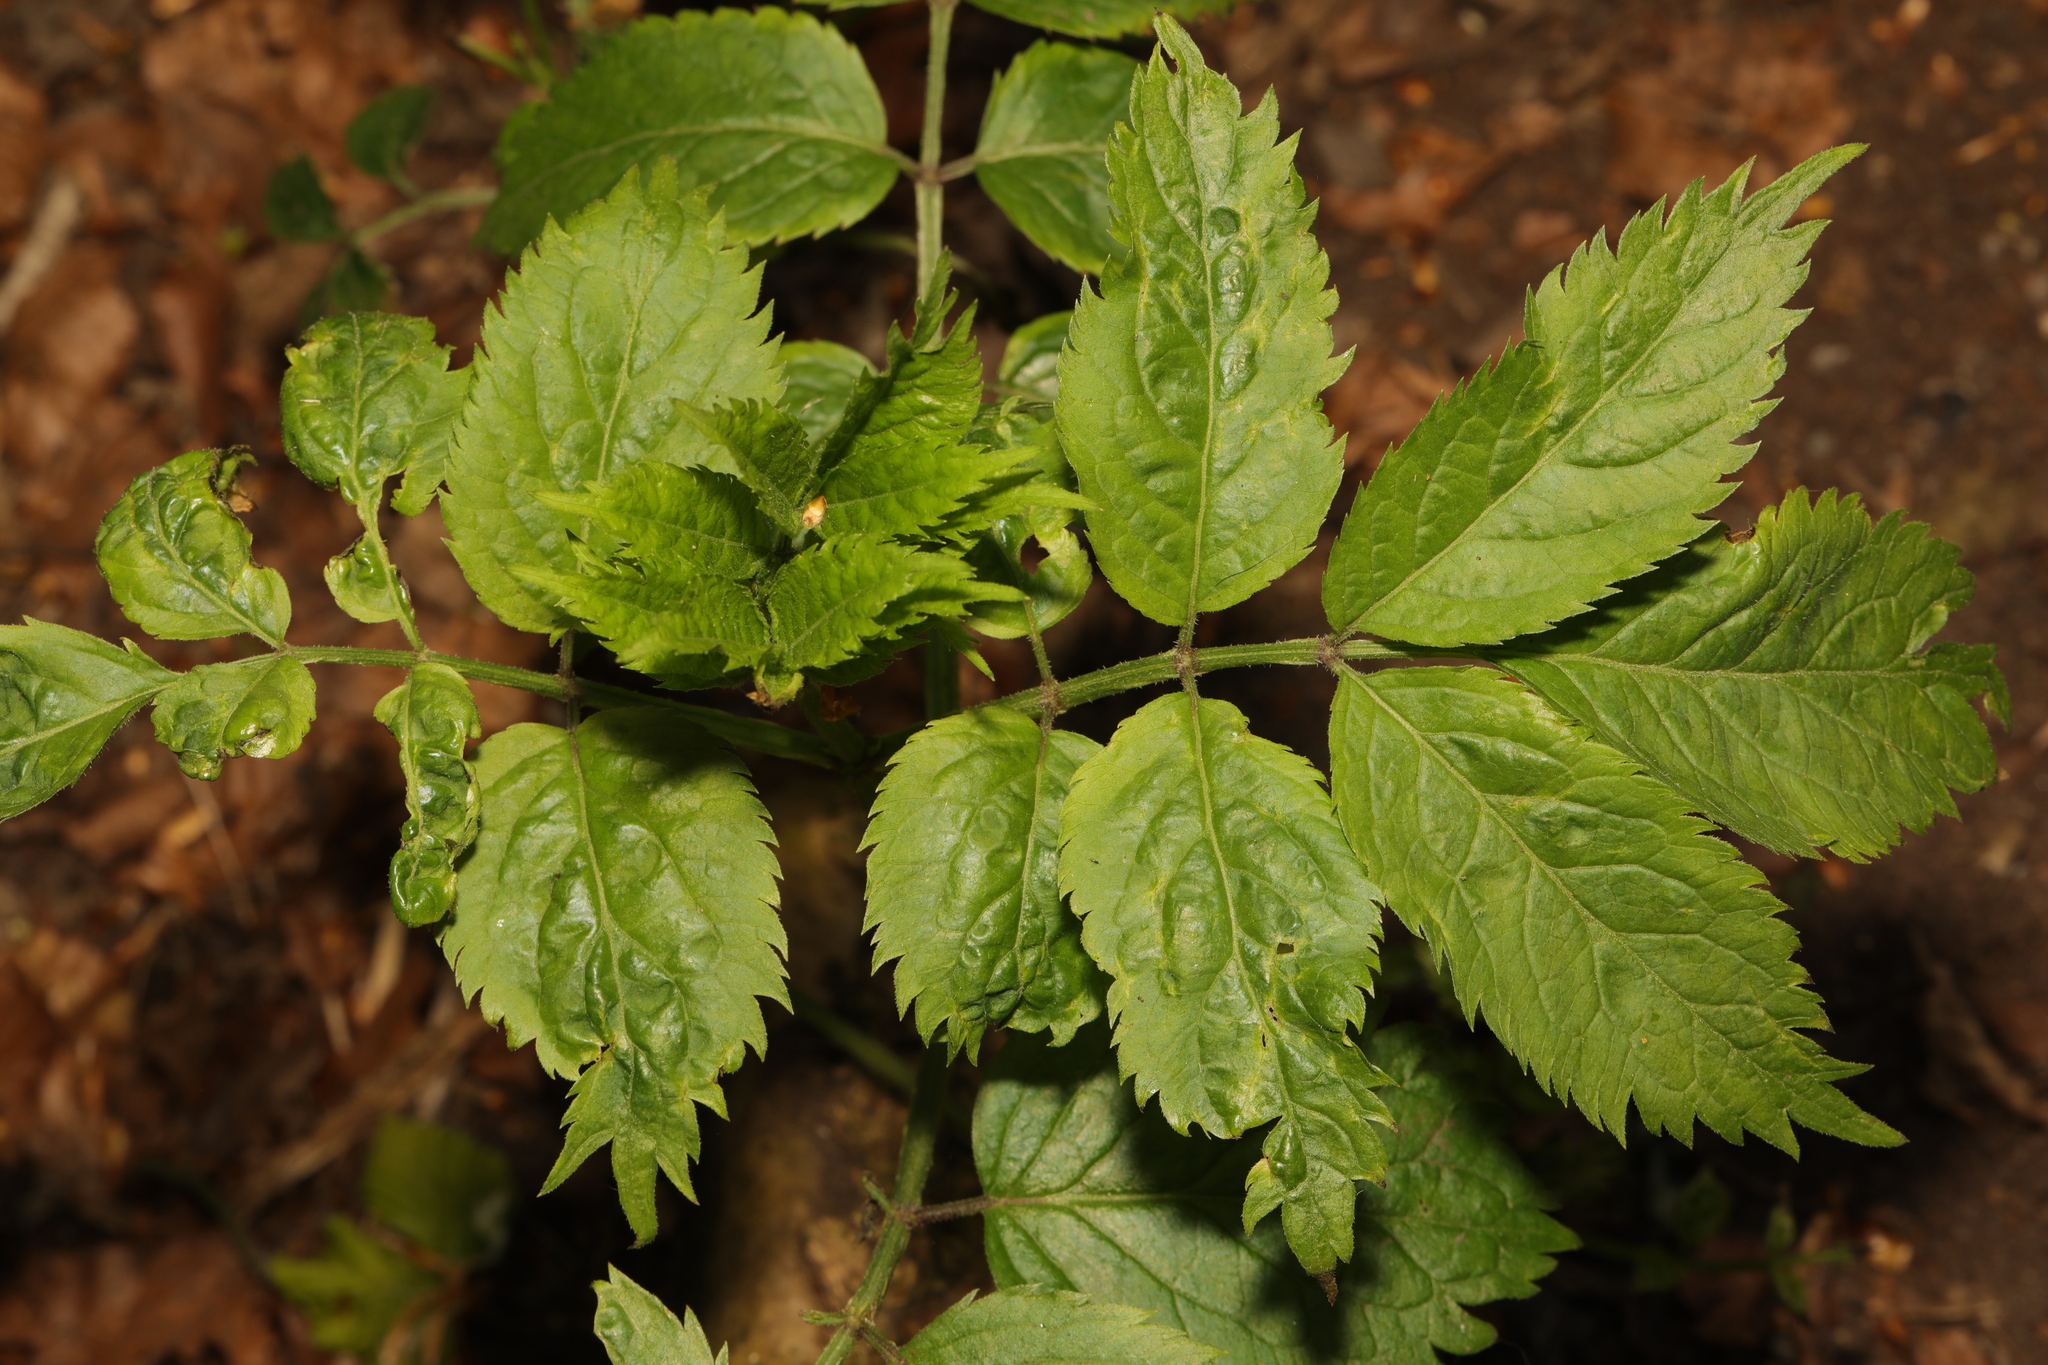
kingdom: Plantae
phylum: Tracheophyta
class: Magnoliopsida
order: Dipsacales
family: Viburnaceae
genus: Sambucus
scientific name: Sambucus nigra
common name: Elder
